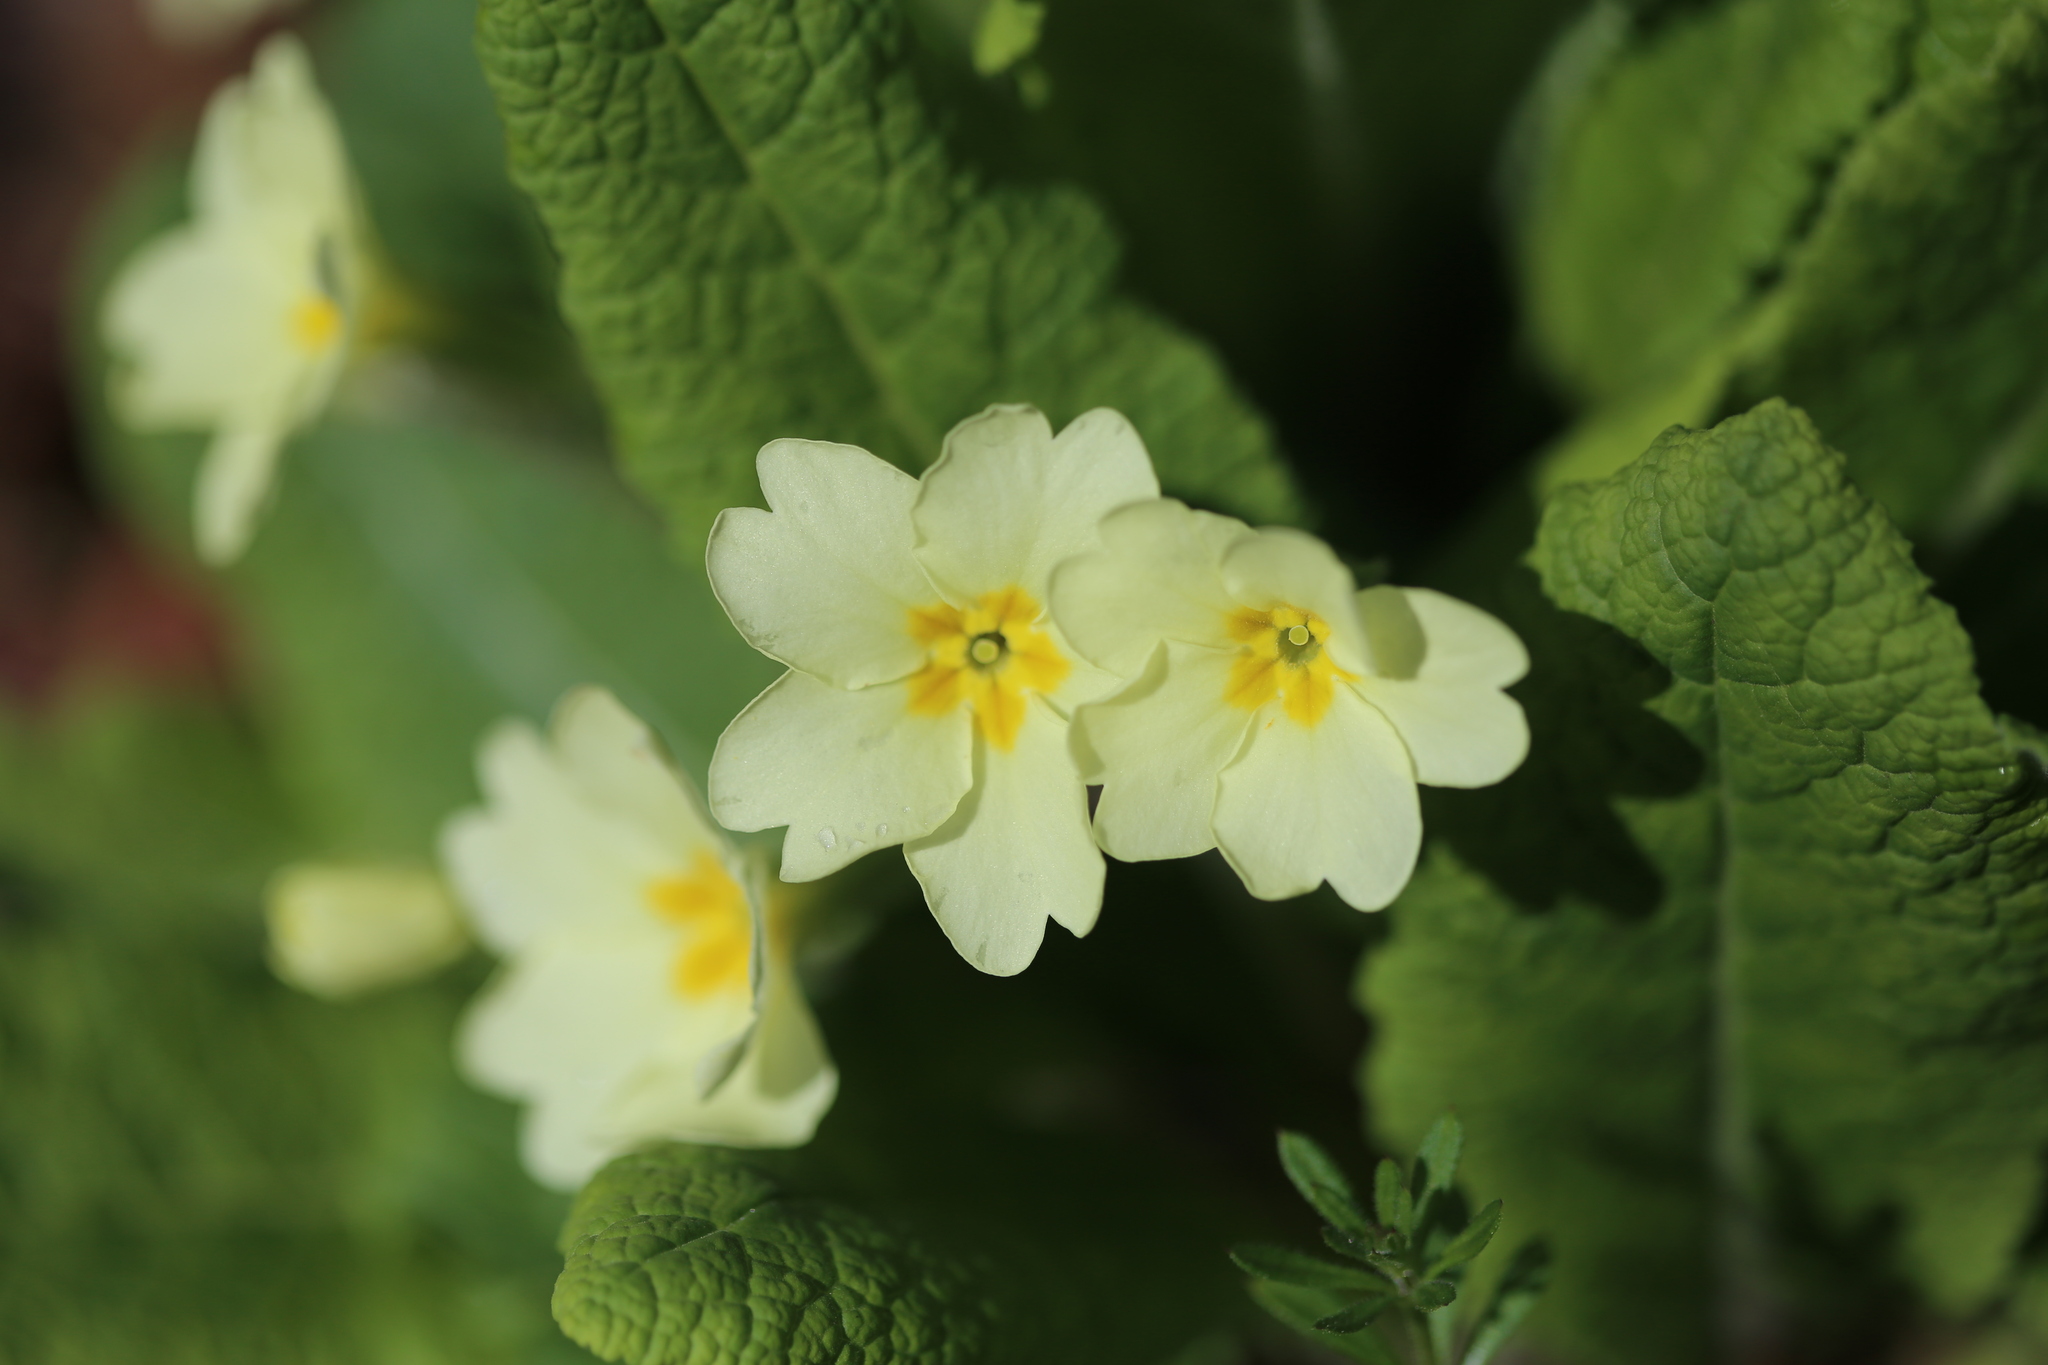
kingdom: Plantae
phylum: Tracheophyta
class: Magnoliopsida
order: Ericales
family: Primulaceae
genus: Primula
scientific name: Primula vulgaris
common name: Primrose
